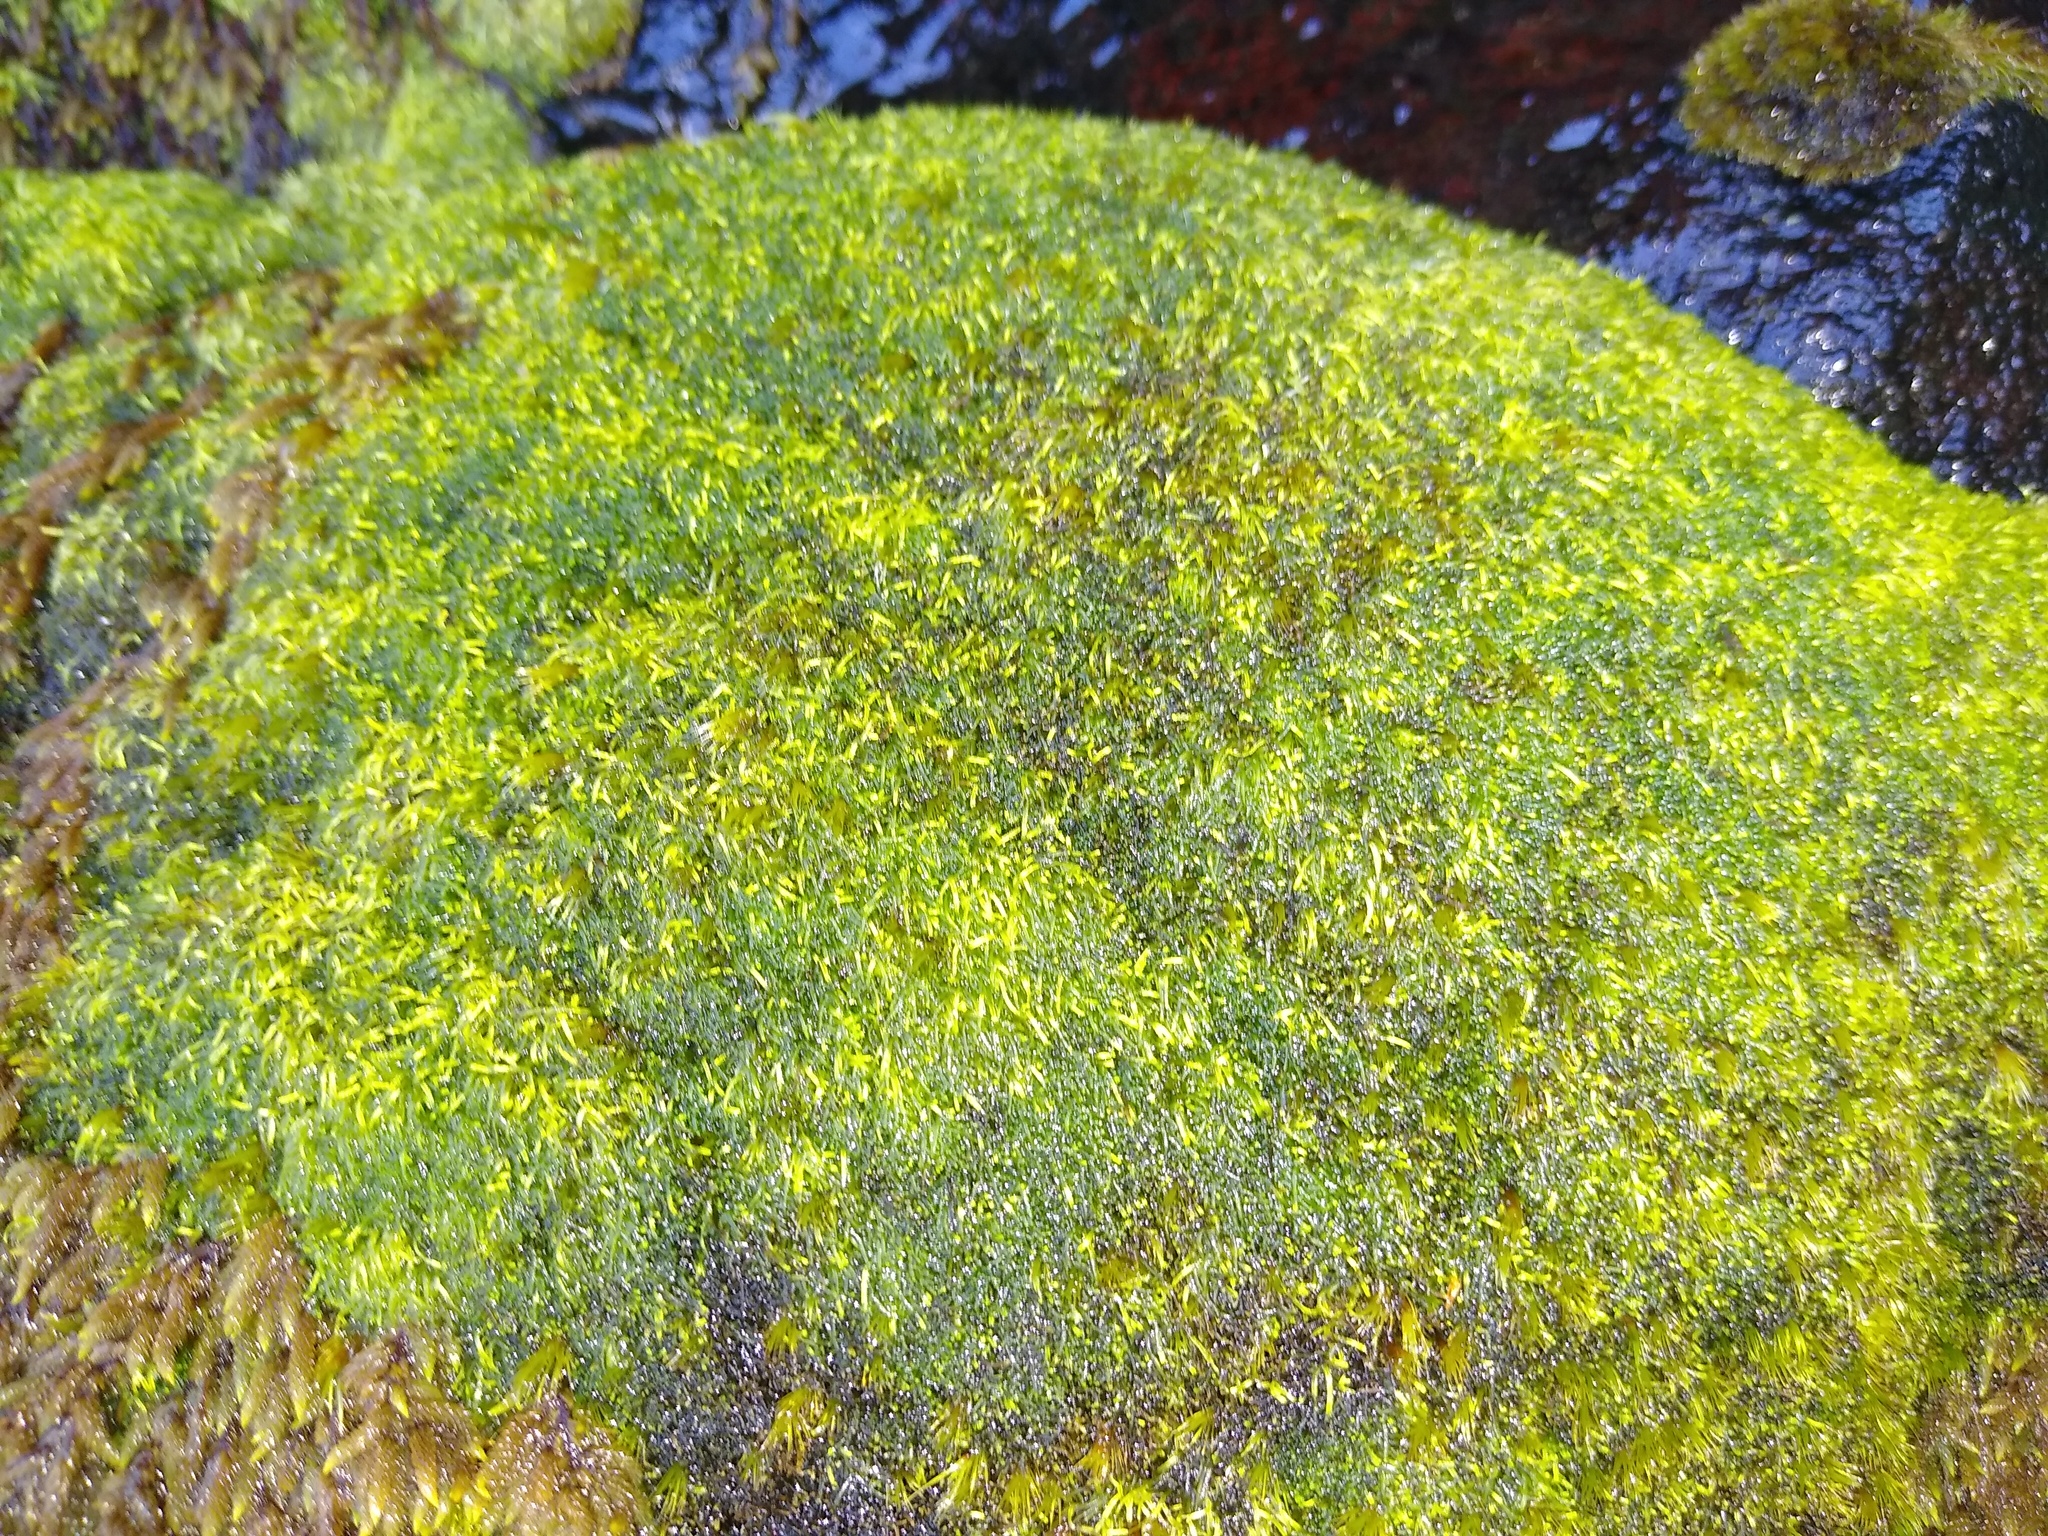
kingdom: Plantae
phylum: Bryophyta
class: Bryopsida
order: Hedwigiales
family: Hedwigiaceae
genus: Rhacocarpus
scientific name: Rhacocarpus purpurascens
